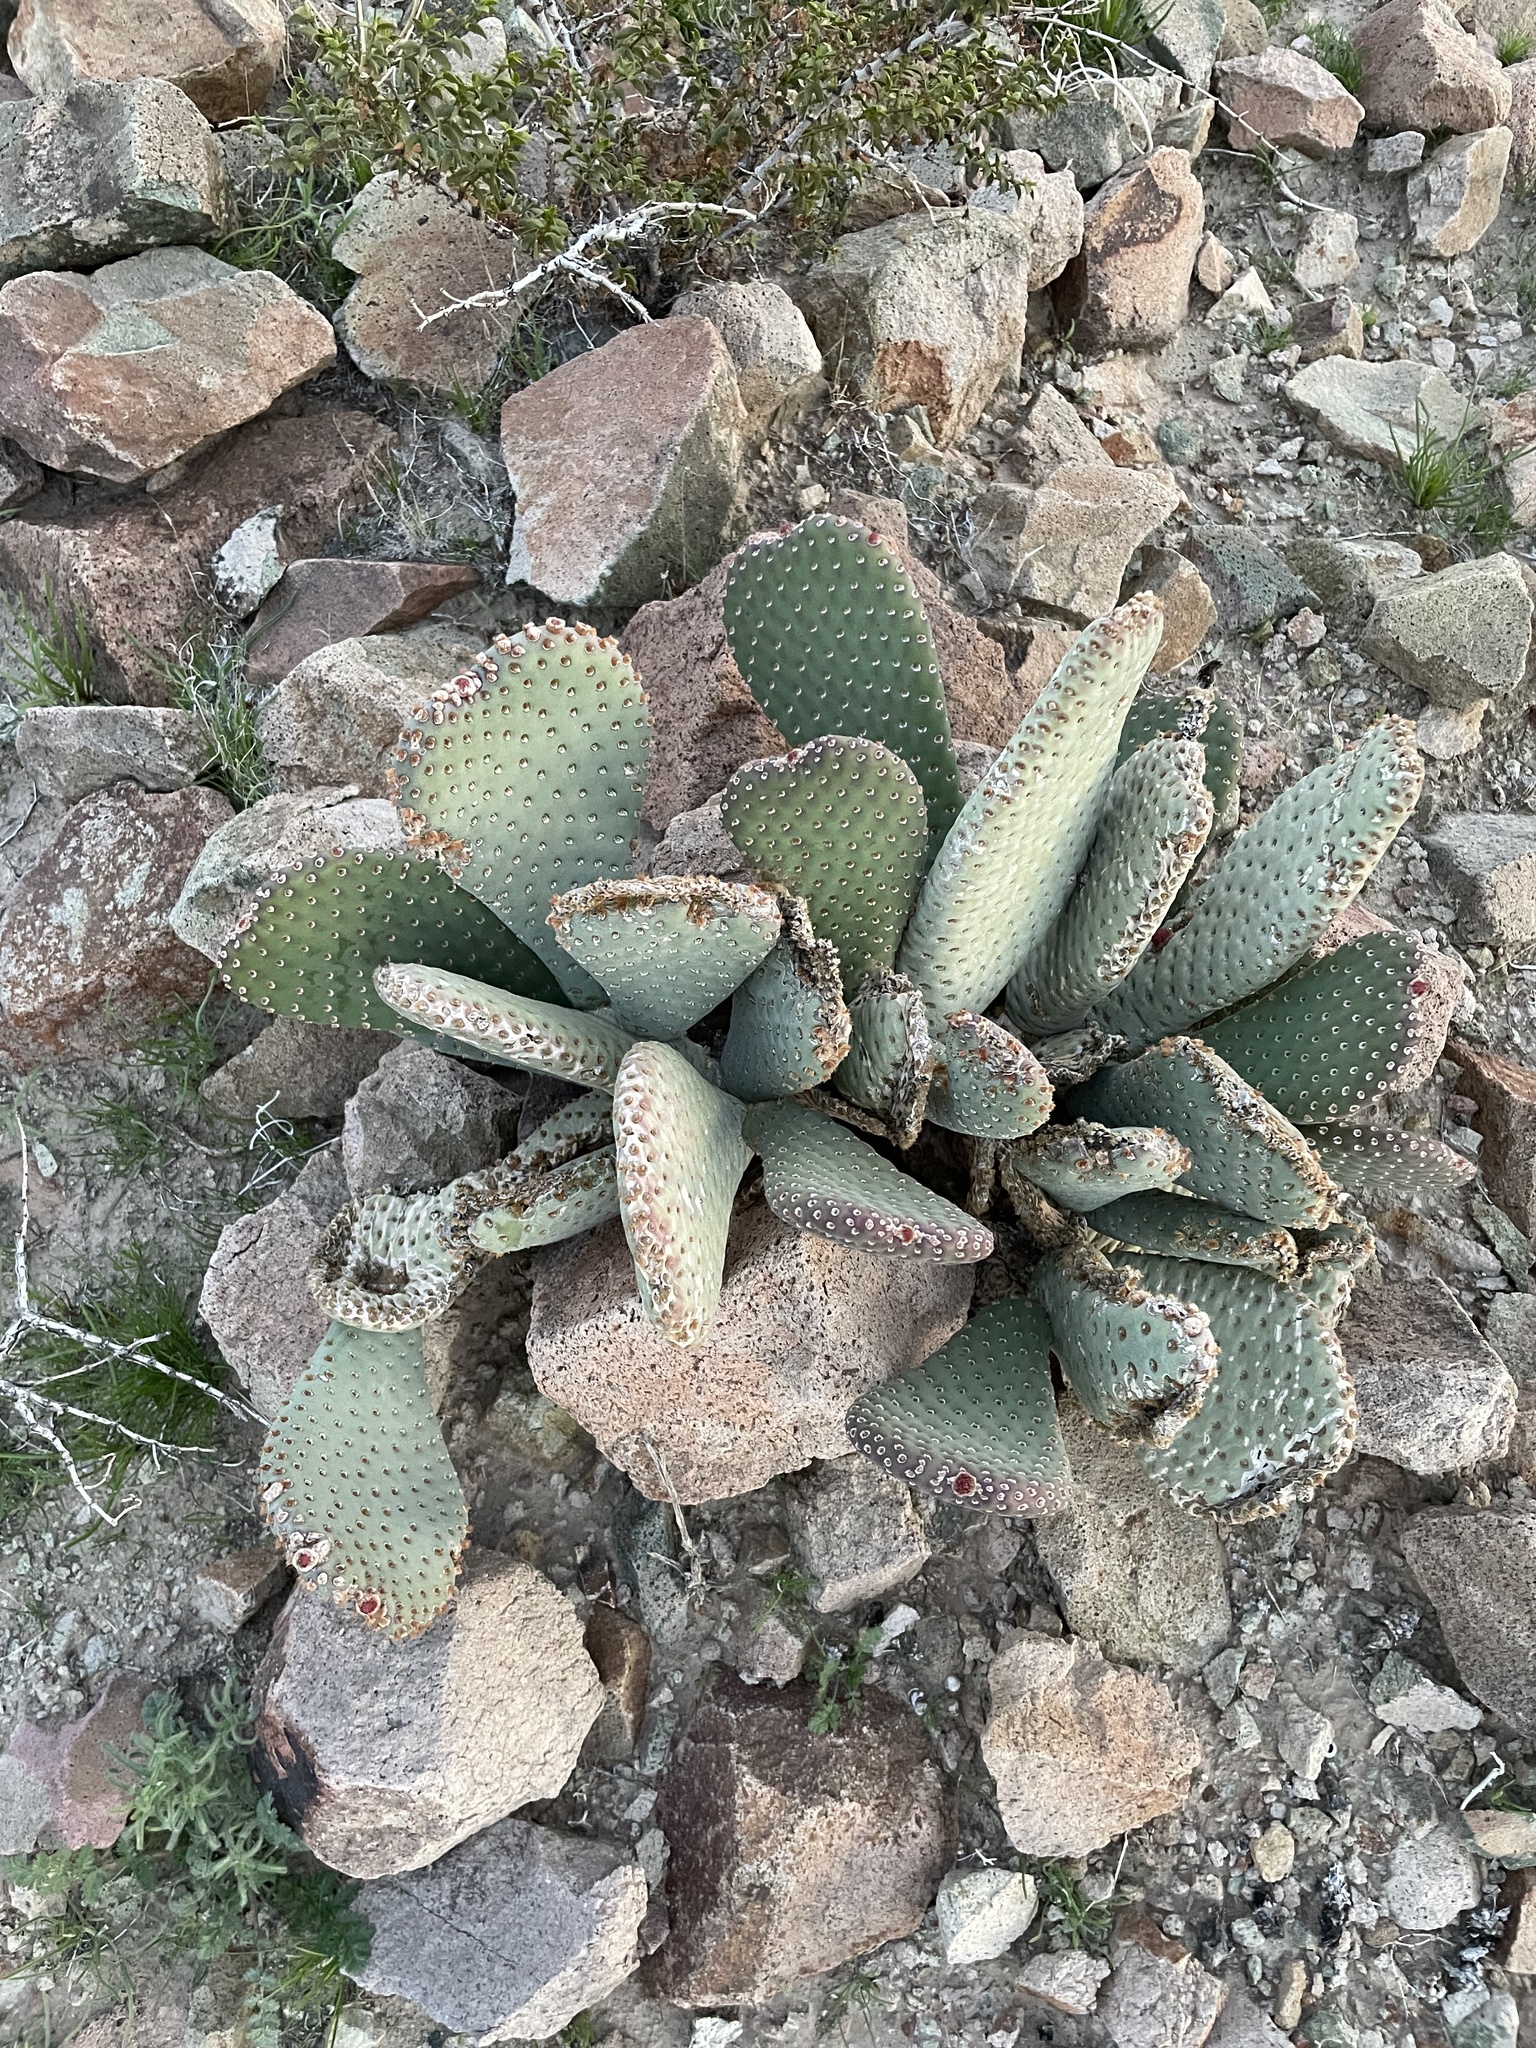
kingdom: Plantae
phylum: Tracheophyta
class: Magnoliopsida
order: Caryophyllales
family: Cactaceae
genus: Opuntia
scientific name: Opuntia basilaris
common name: Beavertail prickly-pear
